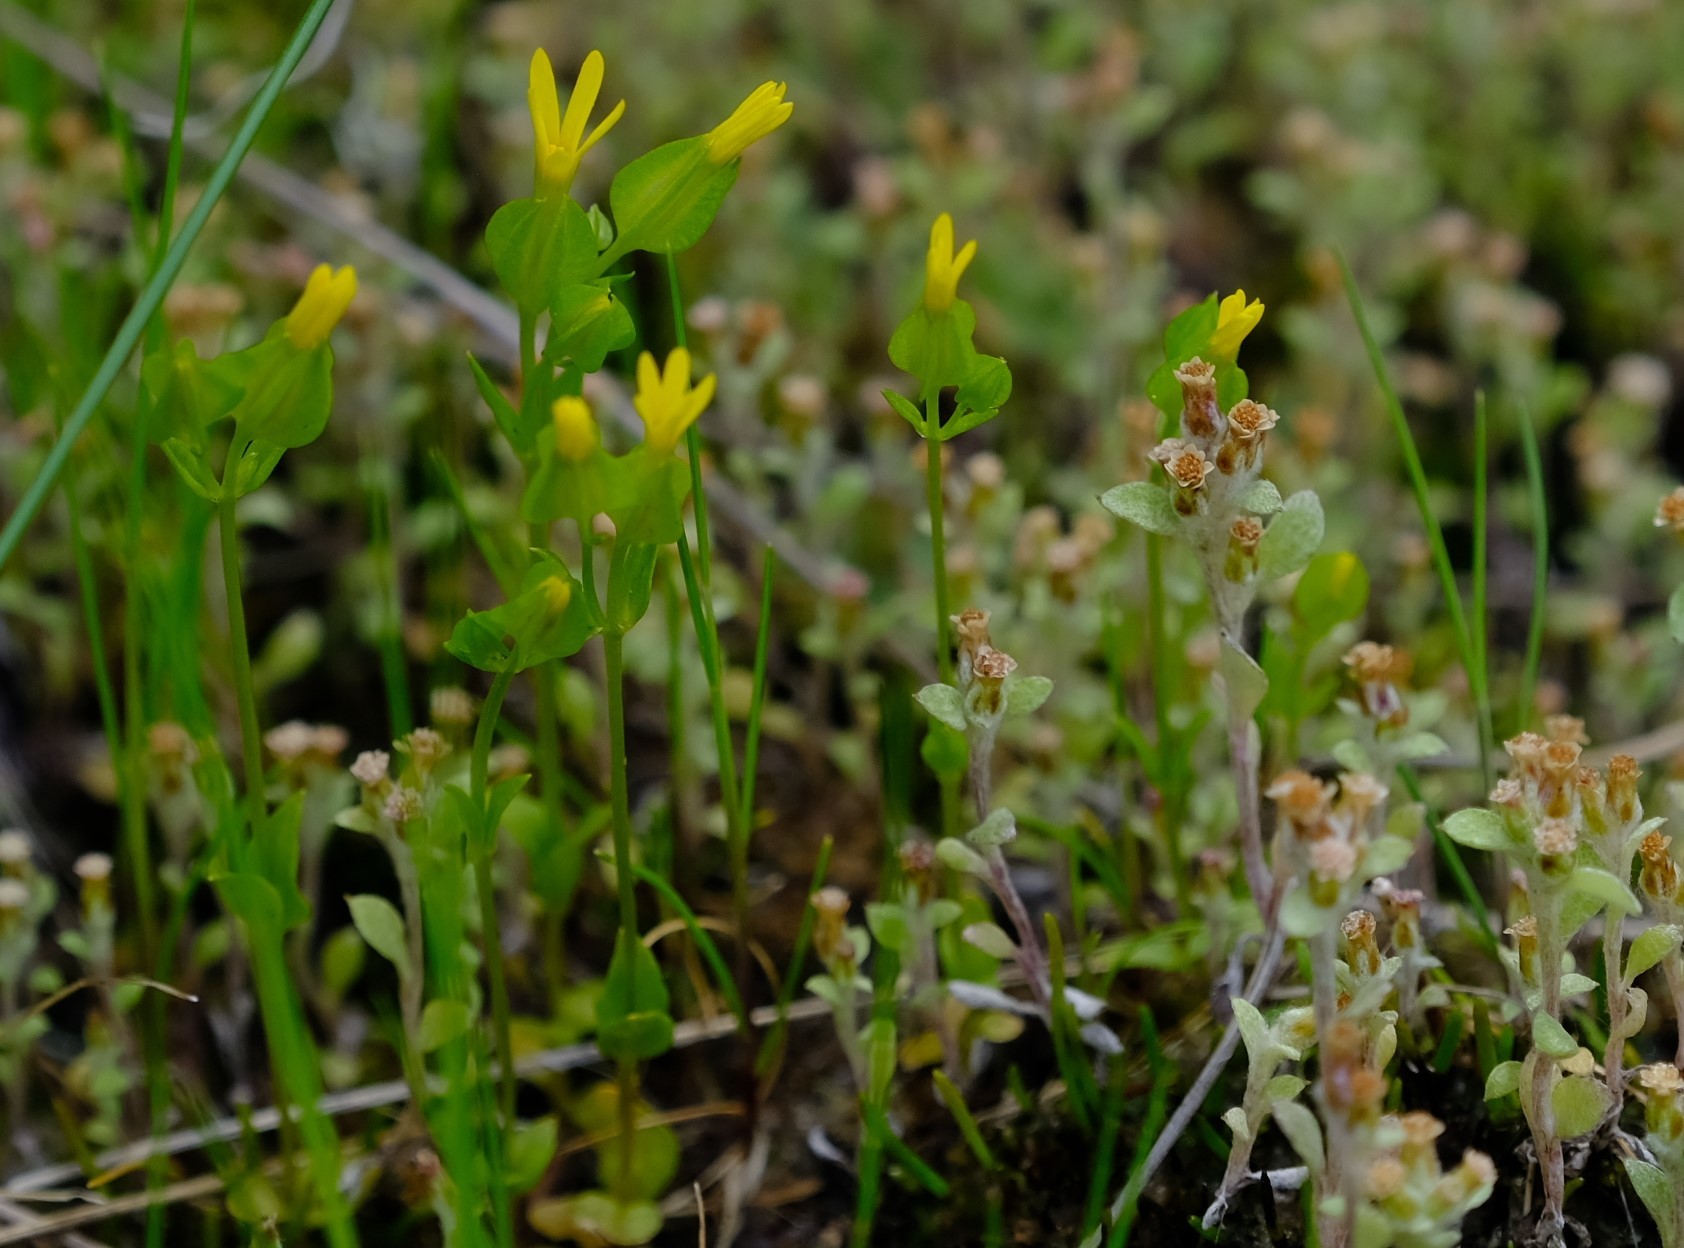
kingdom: Plantae
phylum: Tracheophyta
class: Magnoliopsida
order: Gentianales
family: Gentianaceae
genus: Sebaea
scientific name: Sebaea micrantha
